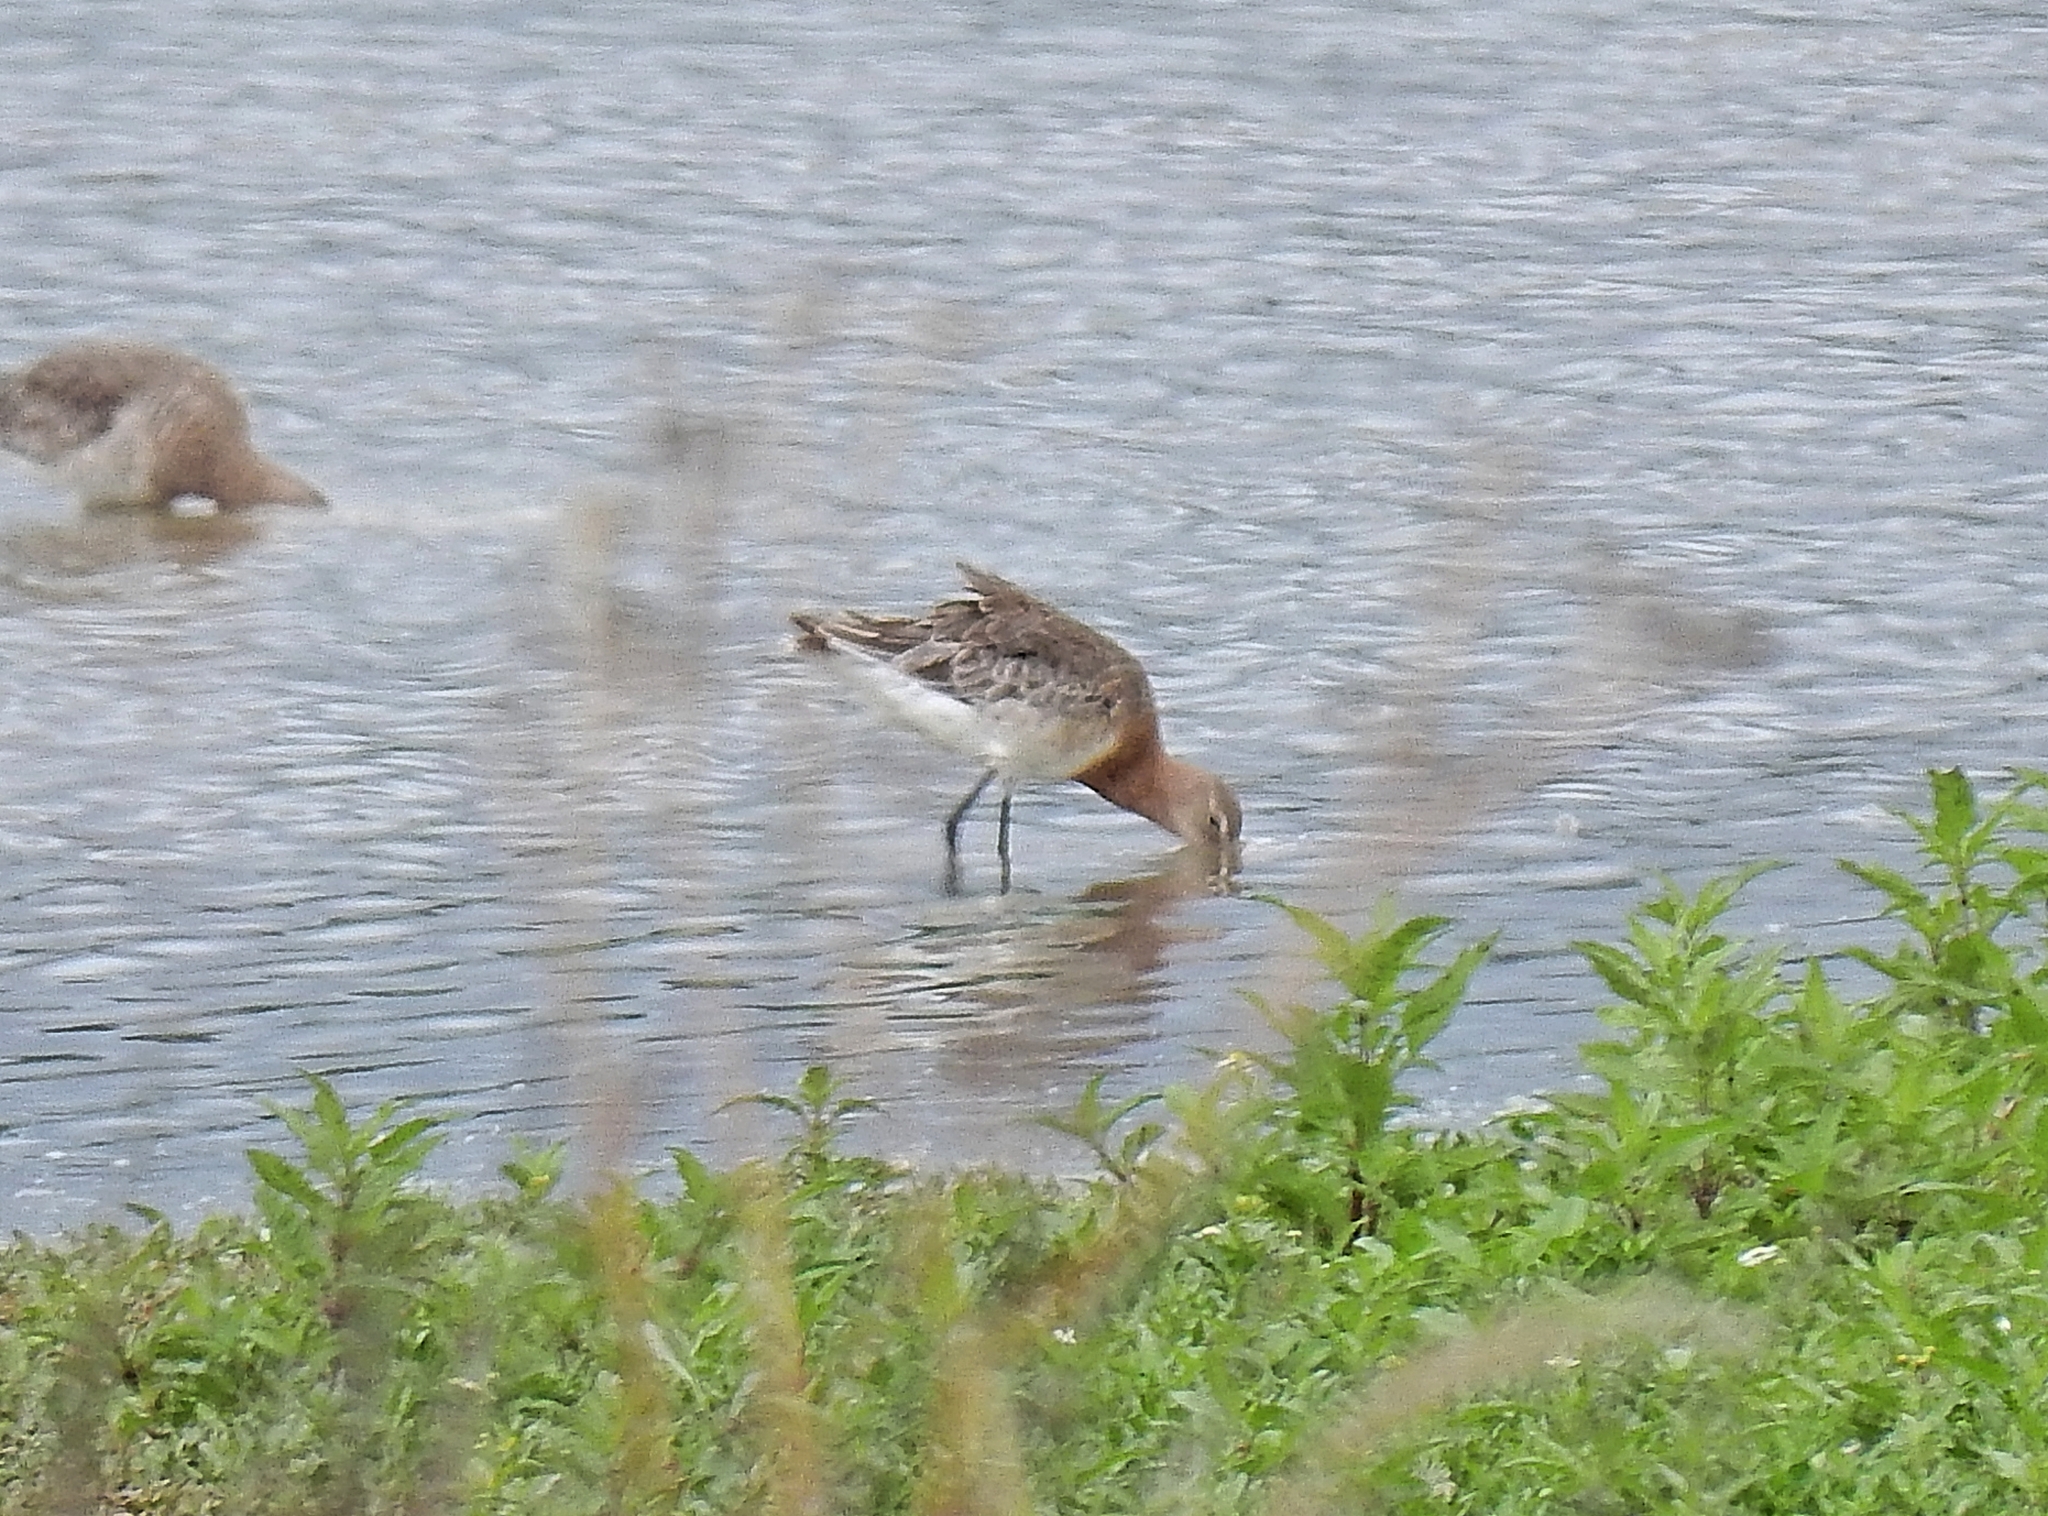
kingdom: Animalia
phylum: Chordata
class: Aves
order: Charadriiformes
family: Scolopacidae
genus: Calidris
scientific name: Calidris pugnax
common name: Ruff
